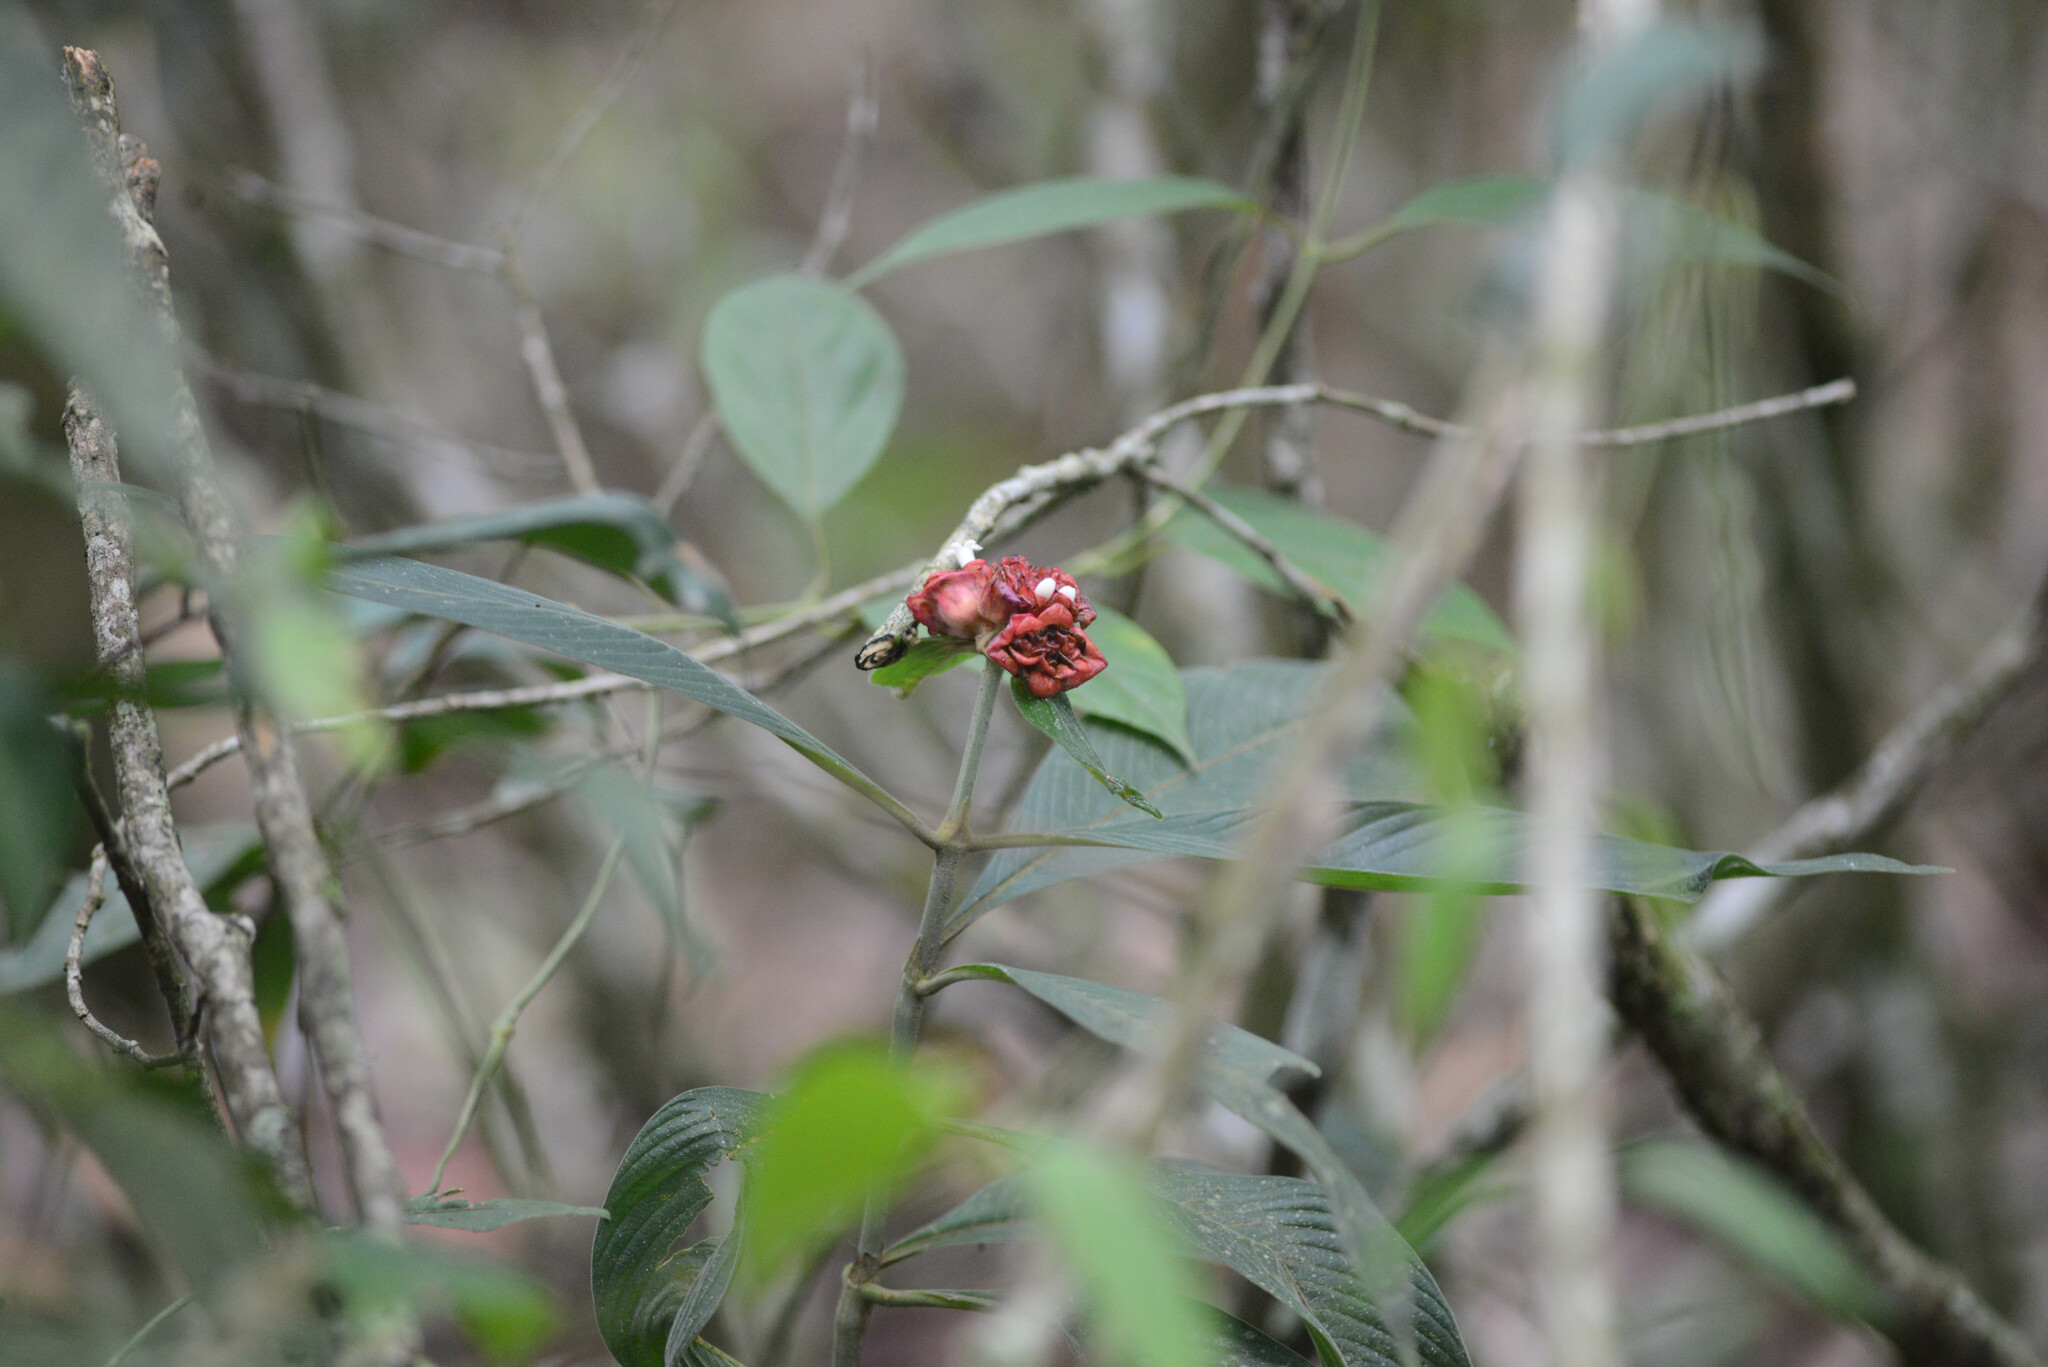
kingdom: Plantae
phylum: Tracheophyta
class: Magnoliopsida
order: Gentianales
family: Rubiaceae
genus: Palicourea
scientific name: Palicourea ruelliifolia
